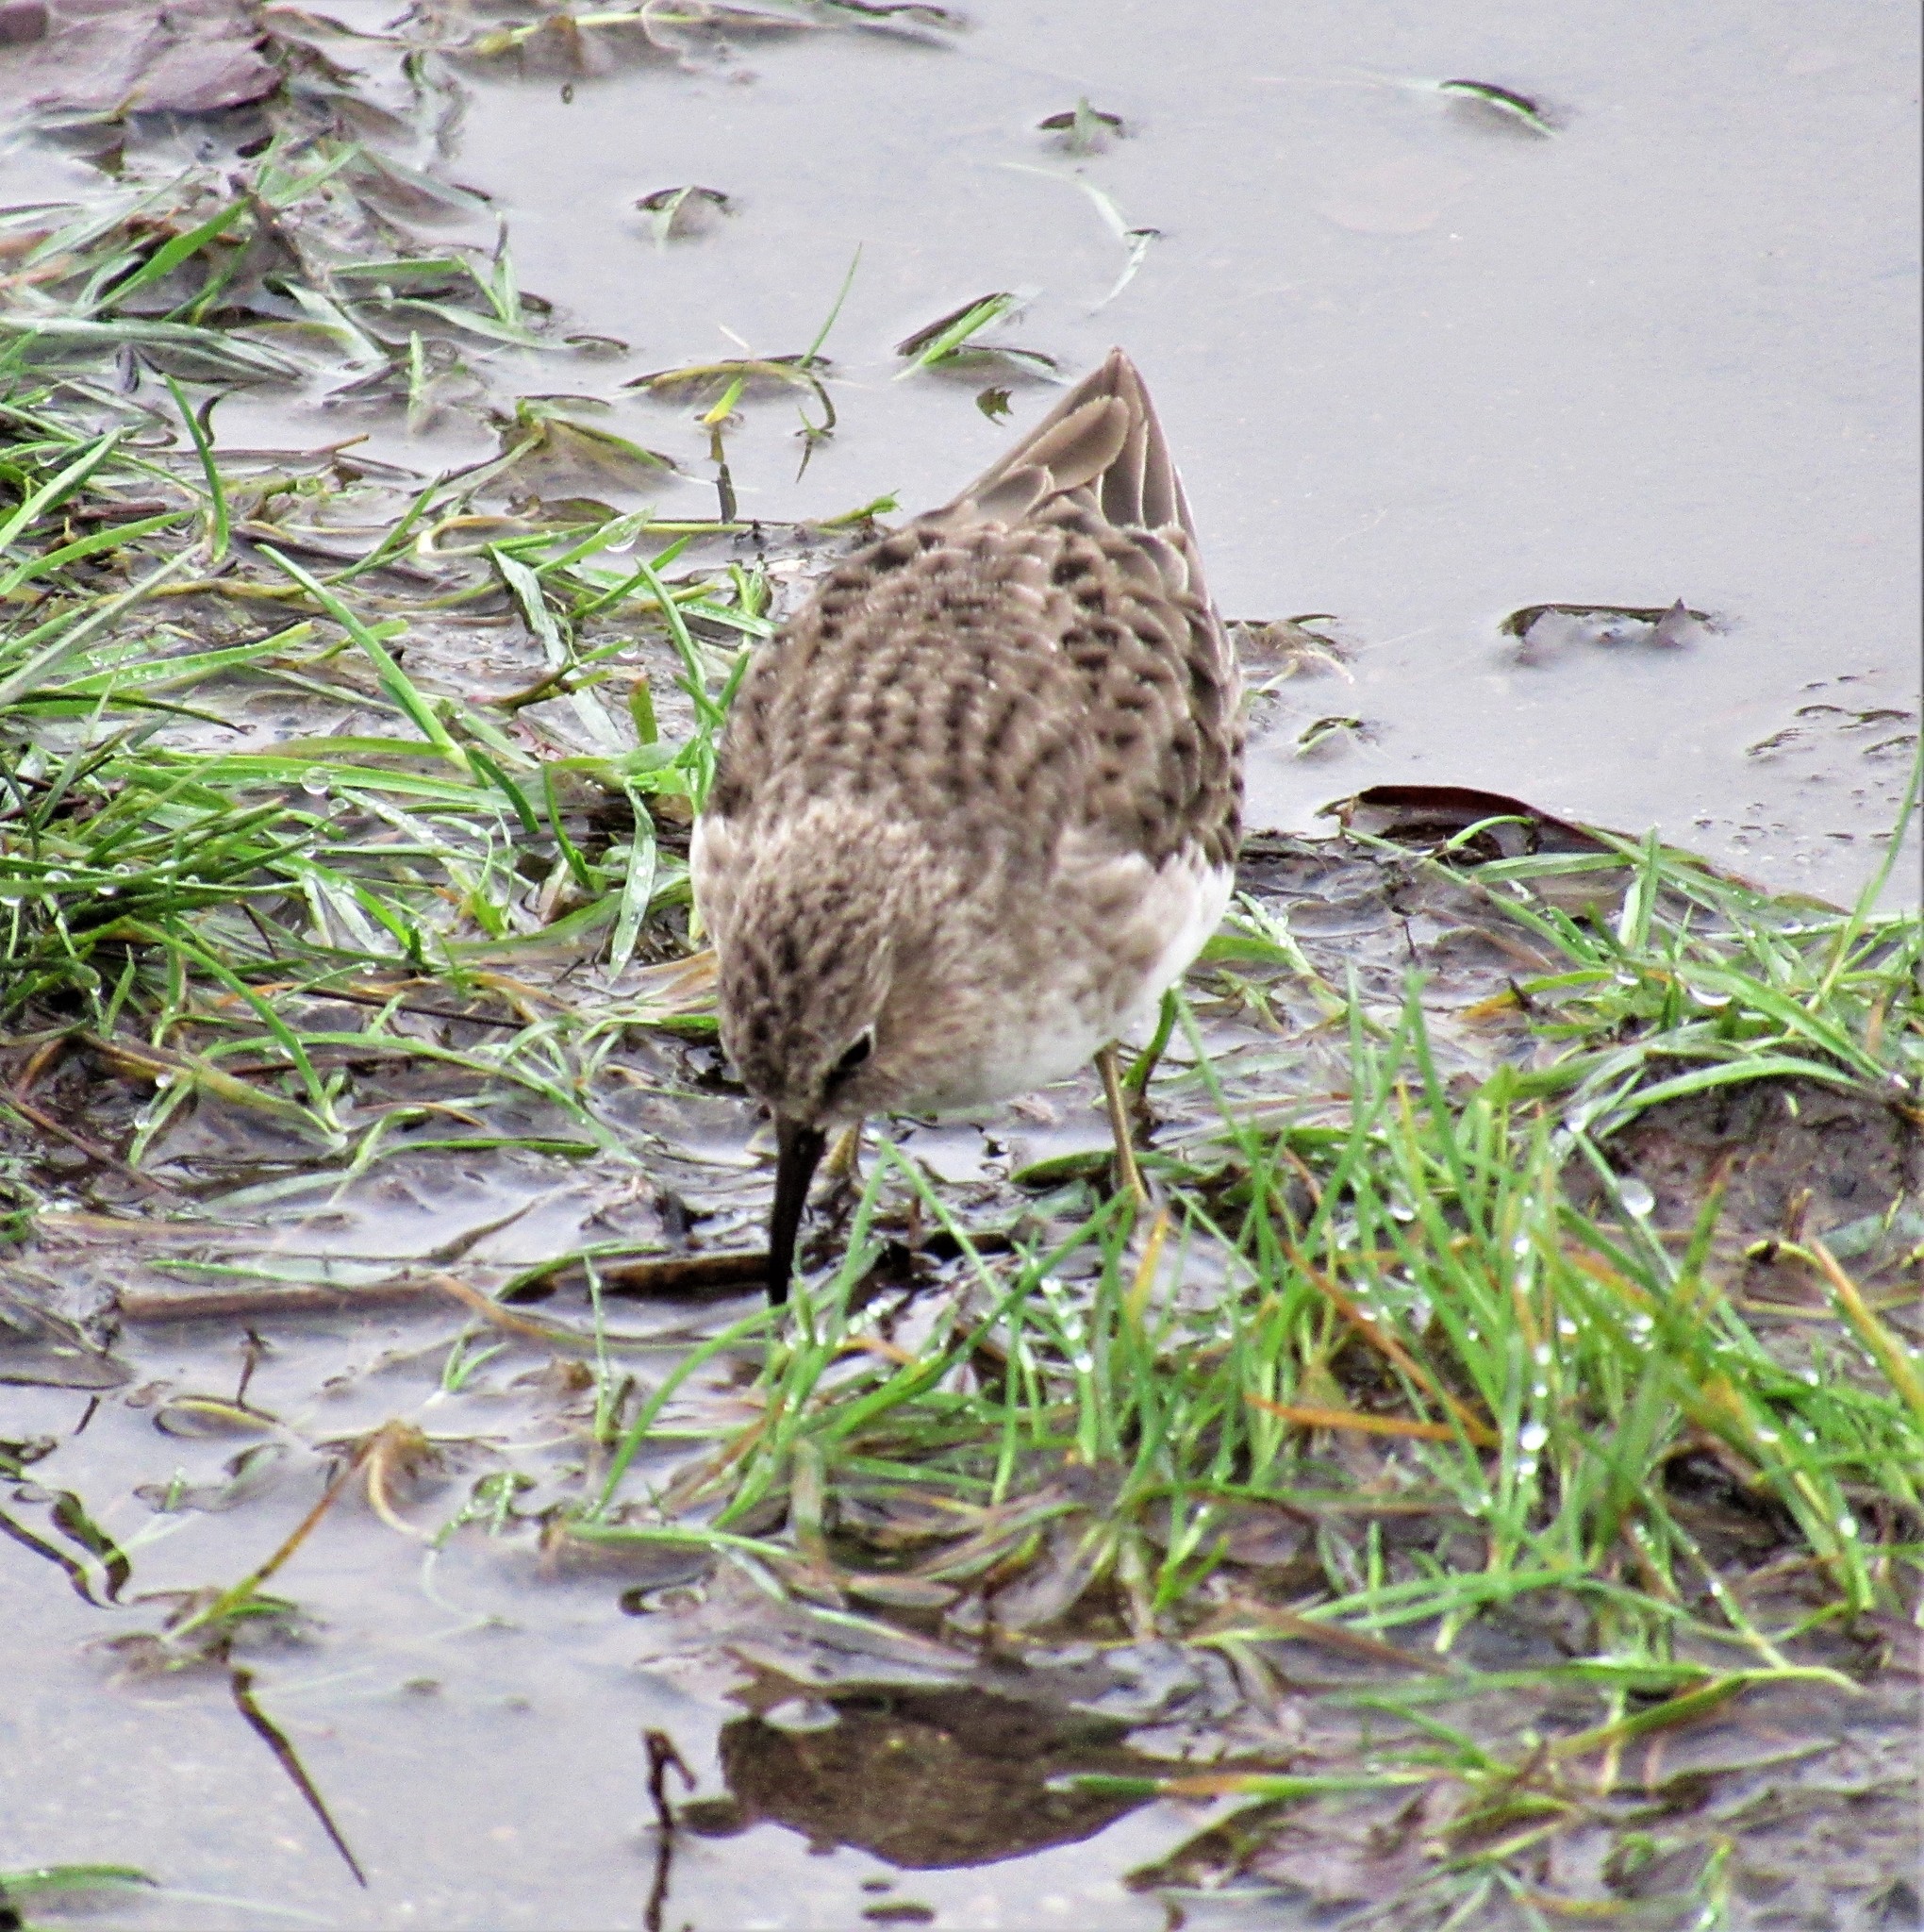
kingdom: Animalia
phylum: Chordata
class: Aves
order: Charadriiformes
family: Scolopacidae
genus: Calidris
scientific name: Calidris minutilla
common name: Least sandpiper
